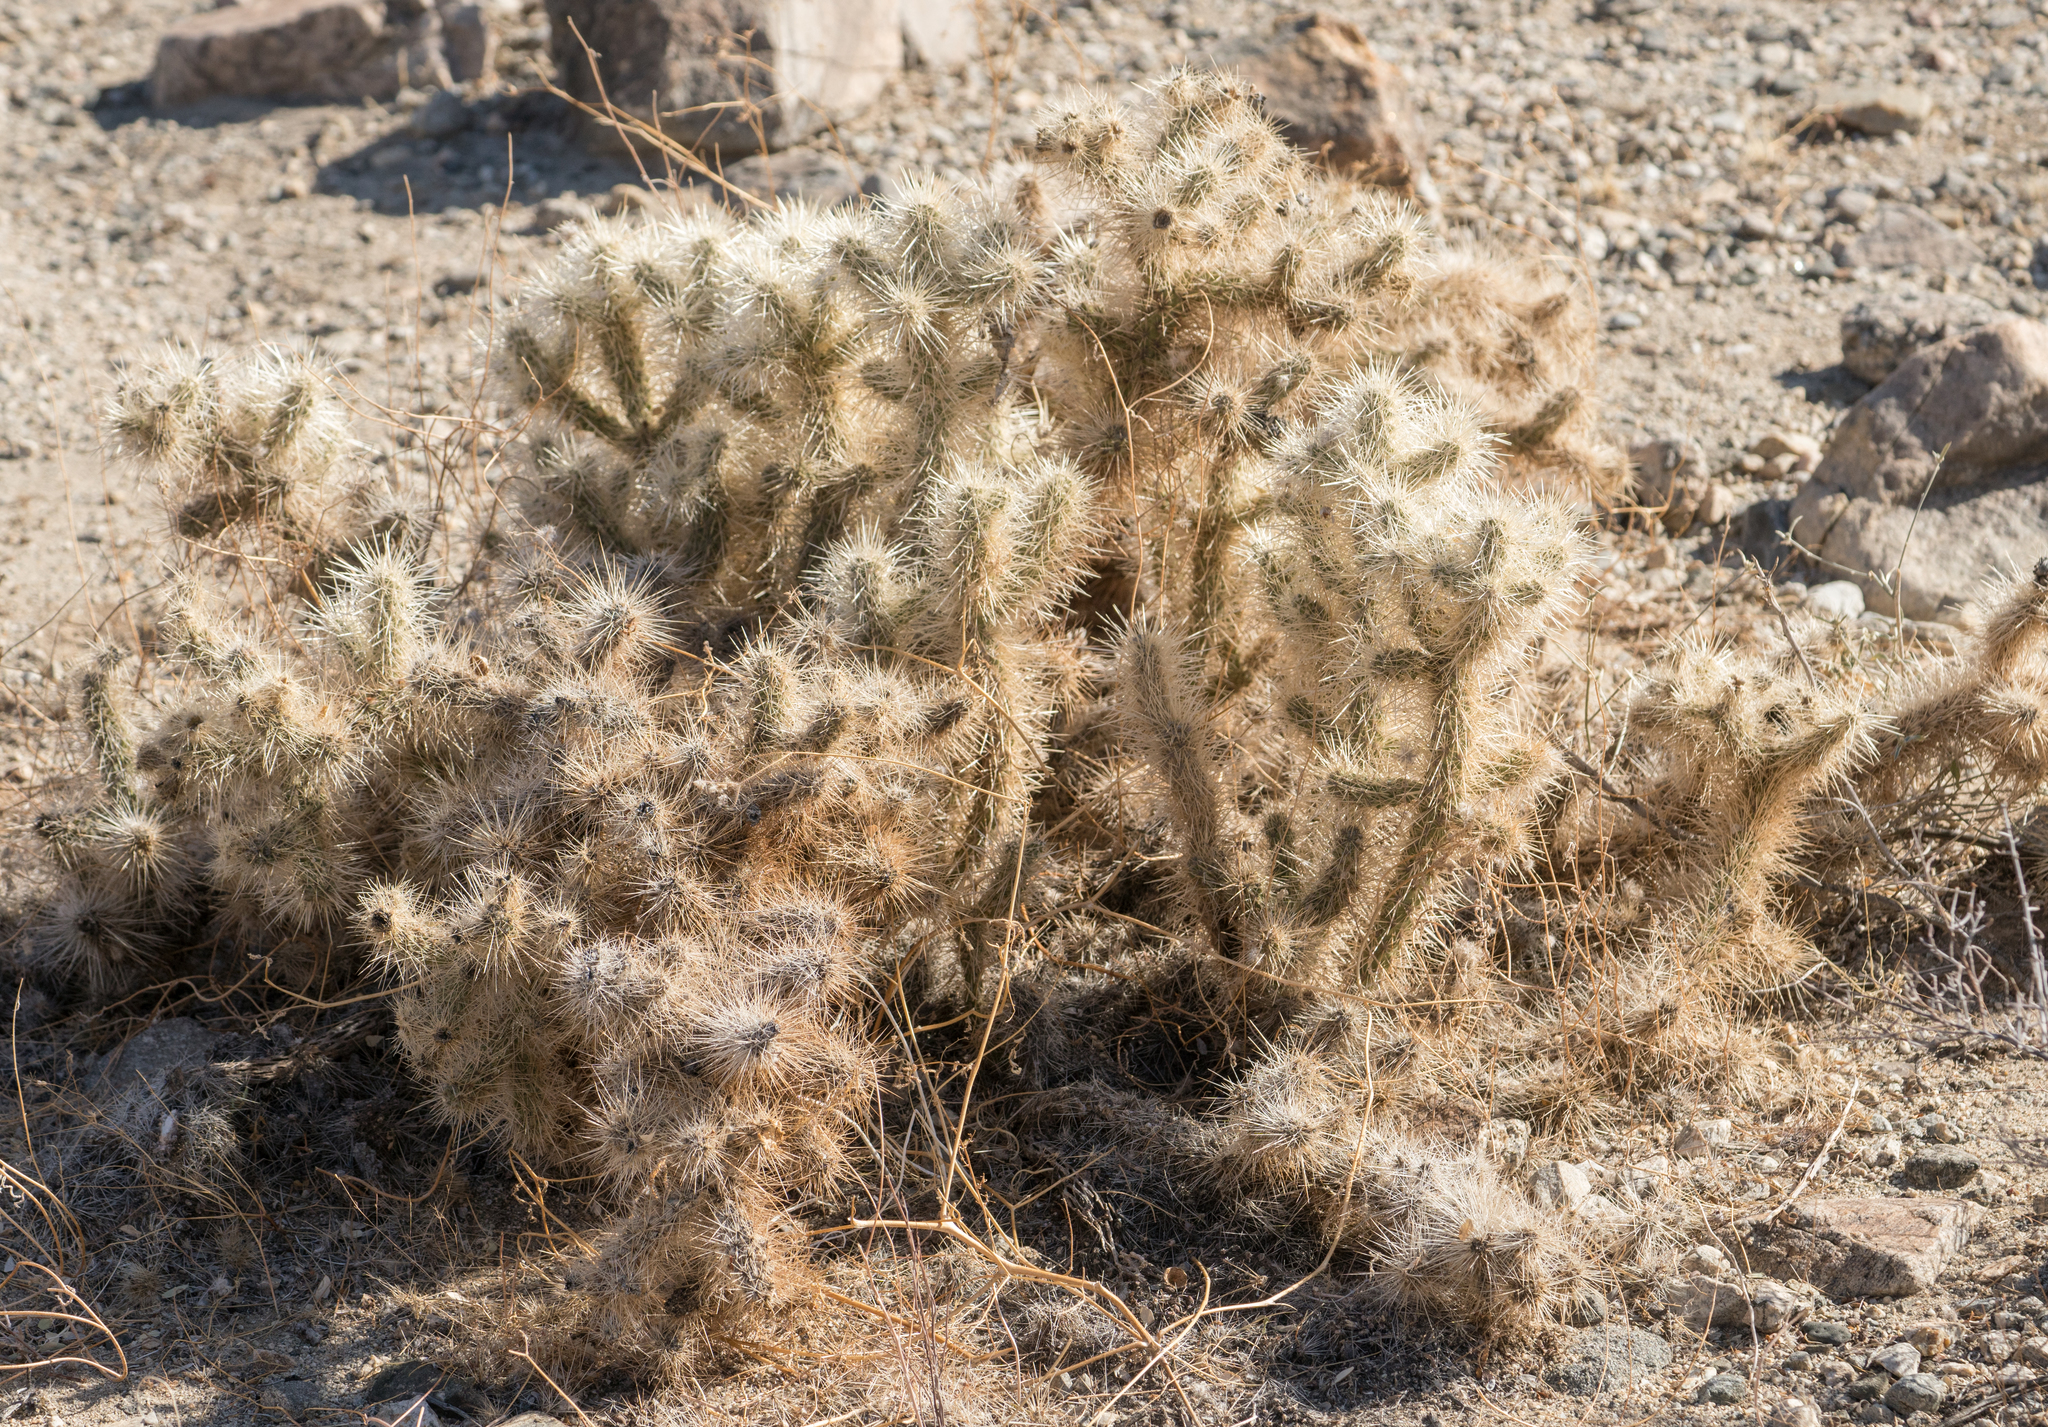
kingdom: Plantae
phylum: Tracheophyta
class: Magnoliopsida
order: Caryophyllales
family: Cactaceae
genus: Cylindropuntia
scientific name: Cylindropuntia echinocarpa
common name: Ground cholla
